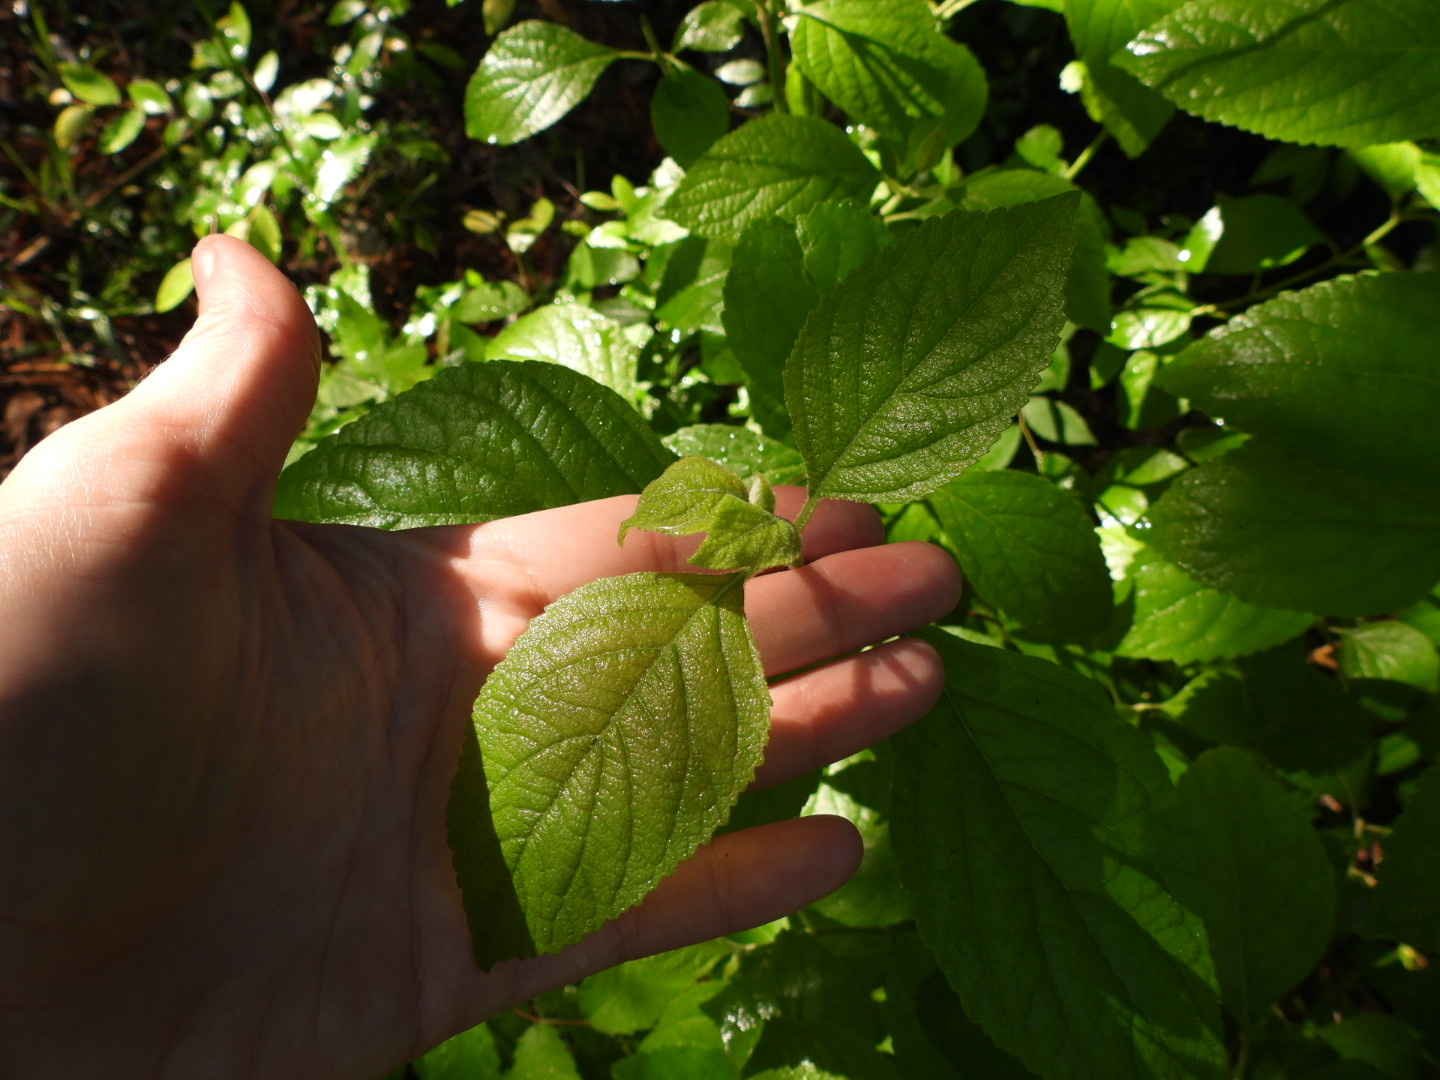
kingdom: Plantae
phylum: Tracheophyta
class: Magnoliopsida
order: Lamiales
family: Lamiaceae
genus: Callicarpa
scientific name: Callicarpa americana
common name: American beautyberry
